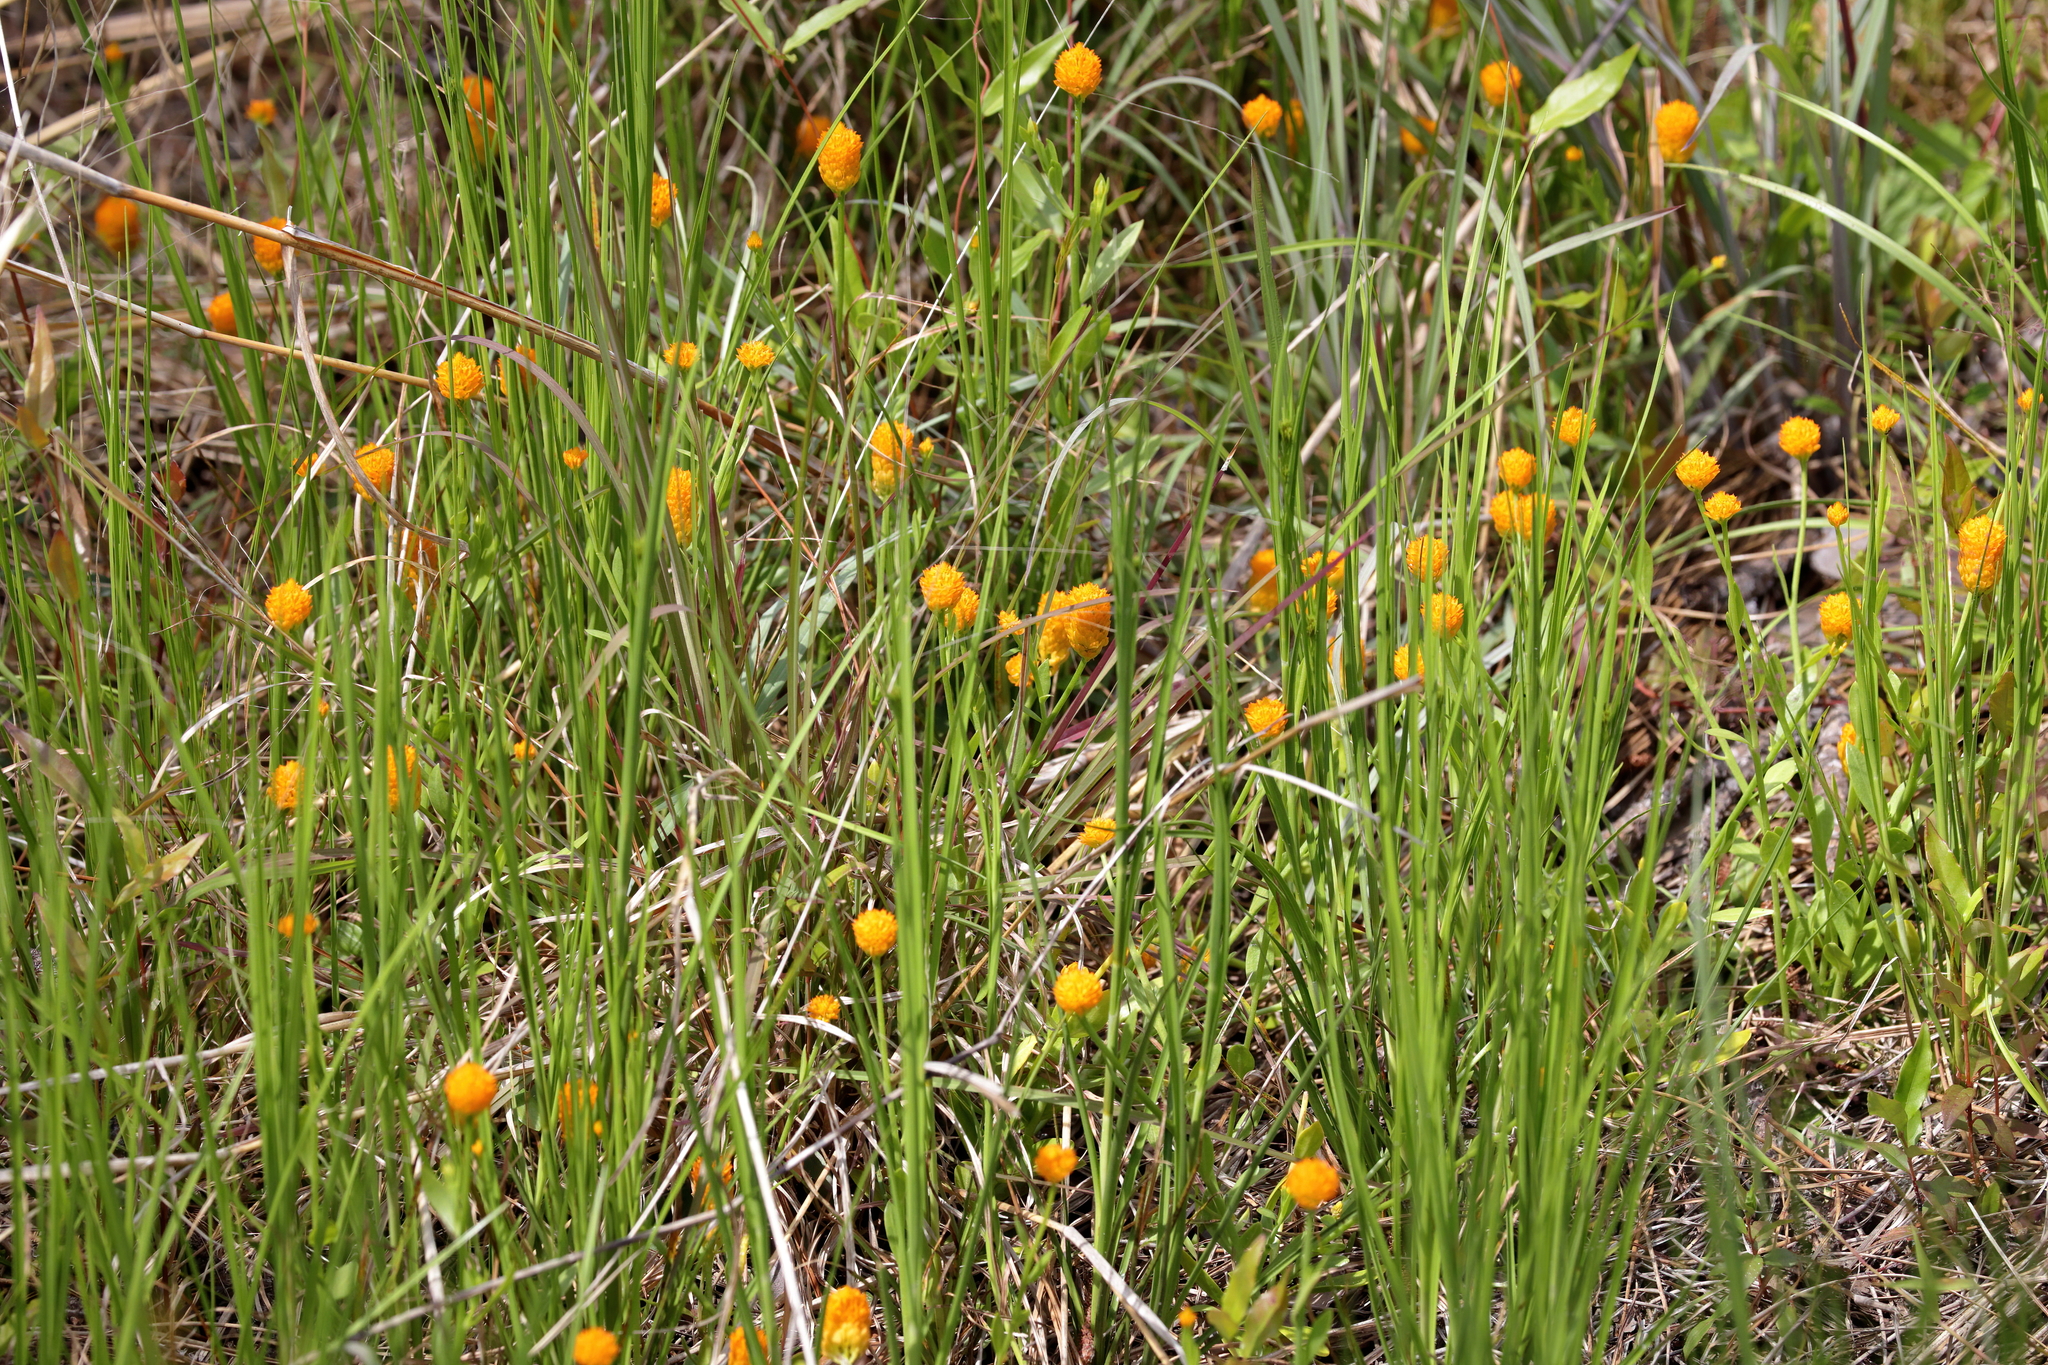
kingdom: Plantae
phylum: Tracheophyta
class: Magnoliopsida
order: Fabales
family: Polygalaceae
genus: Polygala
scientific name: Polygala lutea
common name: Orange milkwort
